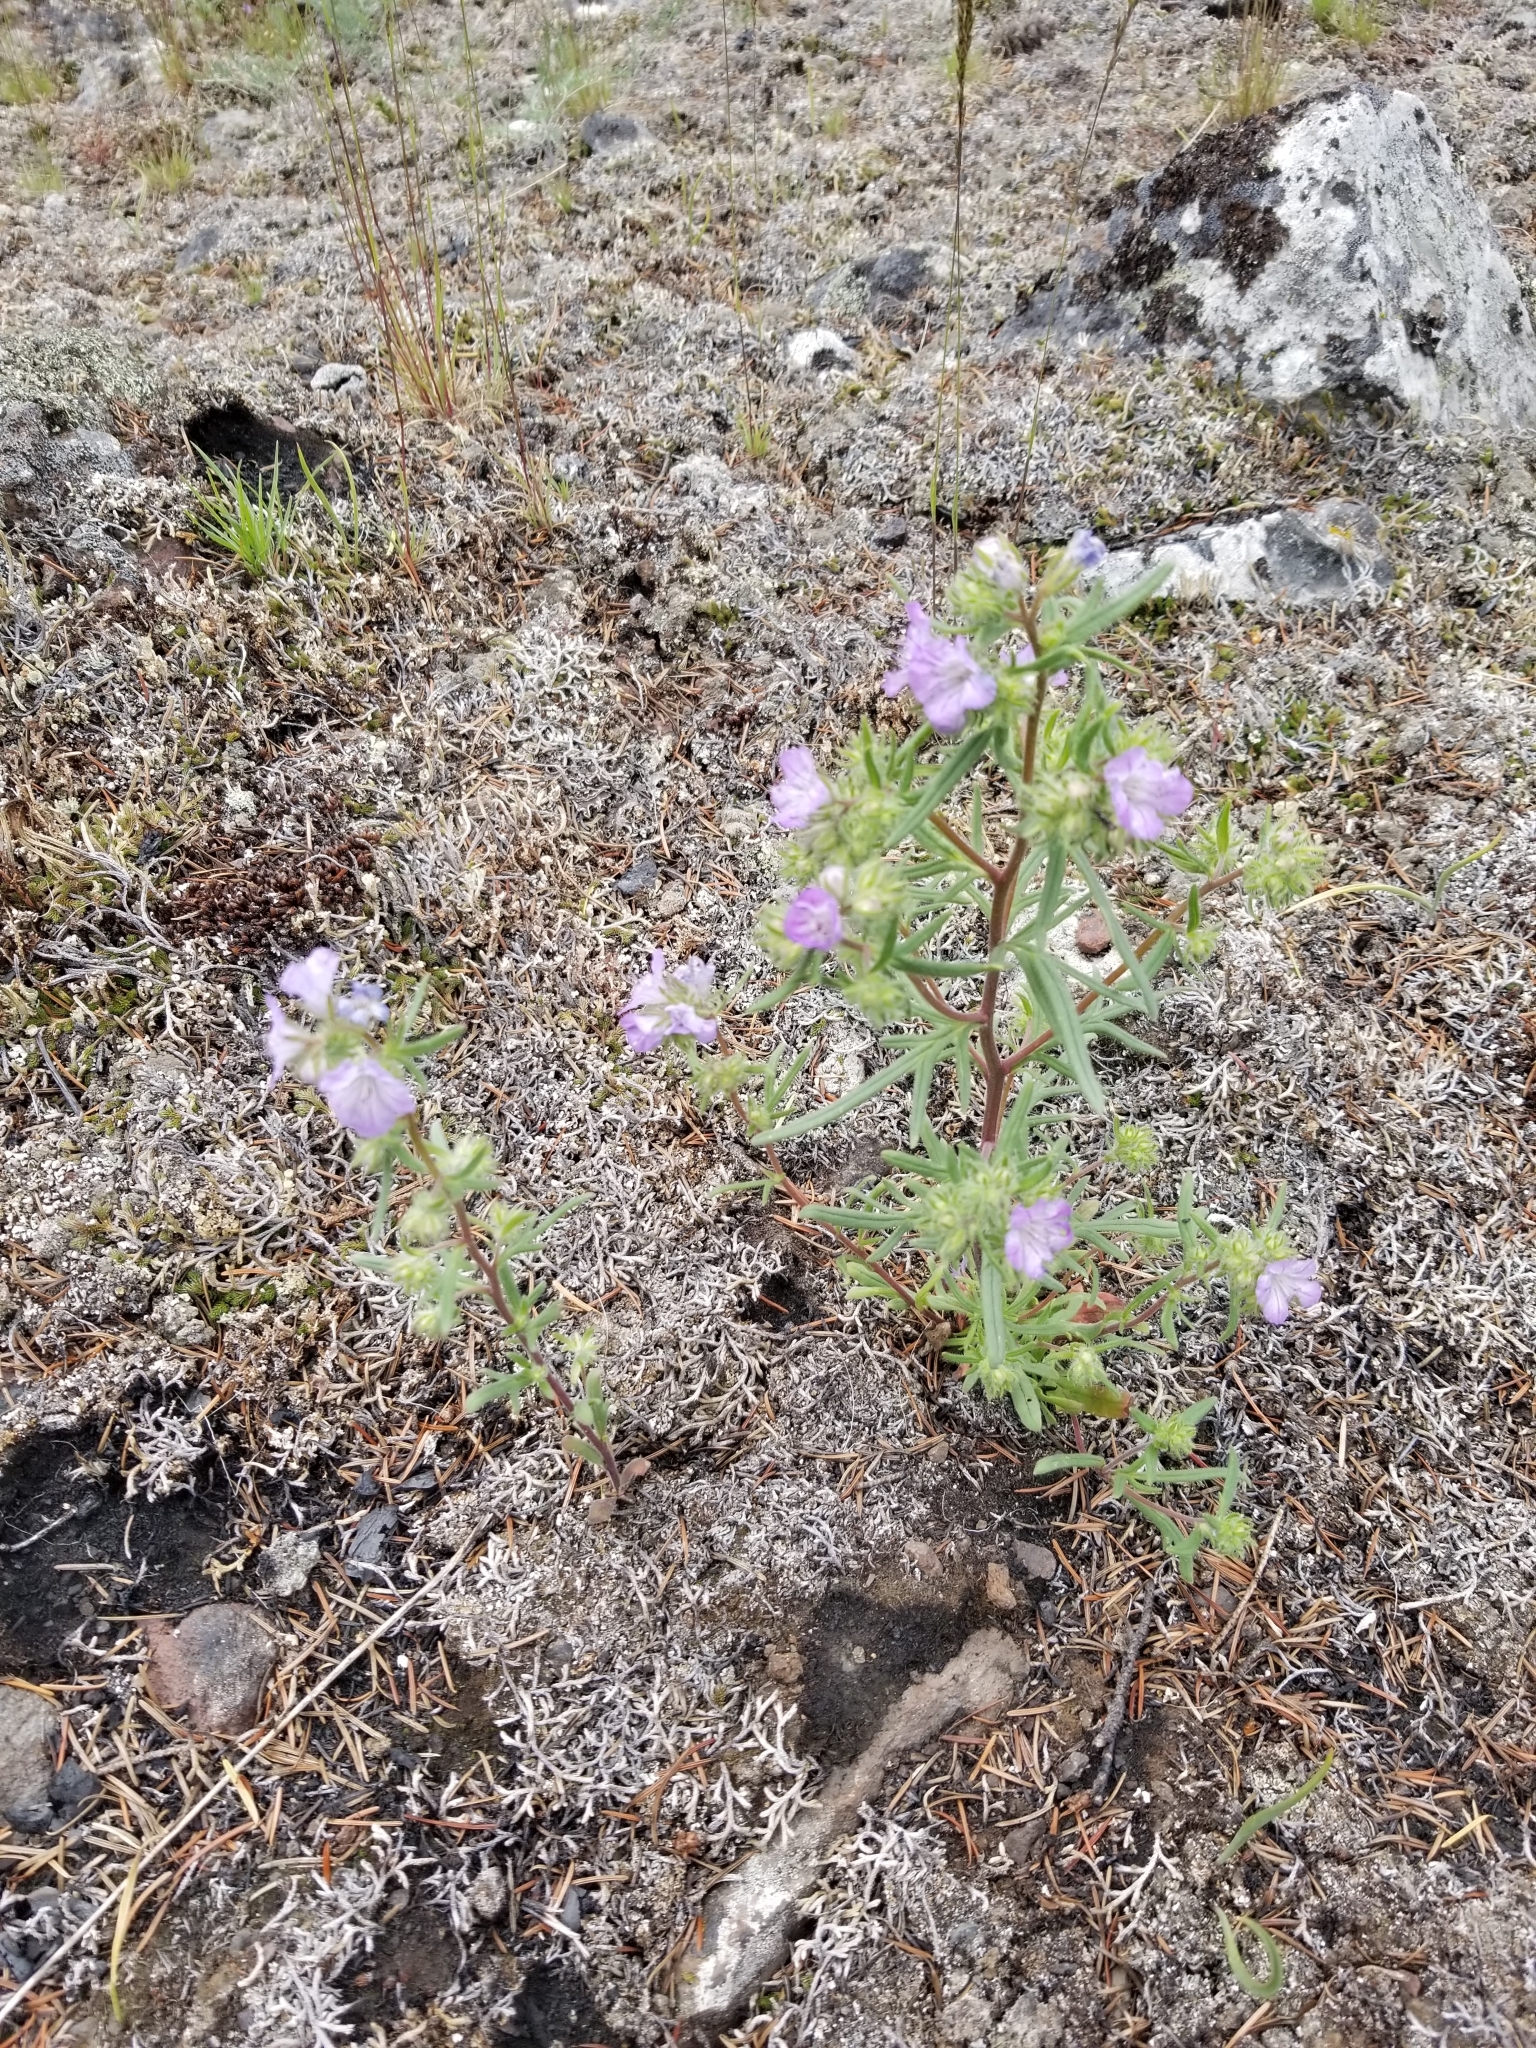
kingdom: Plantae
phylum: Tracheophyta
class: Magnoliopsida
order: Boraginales
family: Hydrophyllaceae
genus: Phacelia
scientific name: Phacelia linearis
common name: Linear-leaved phacelia
